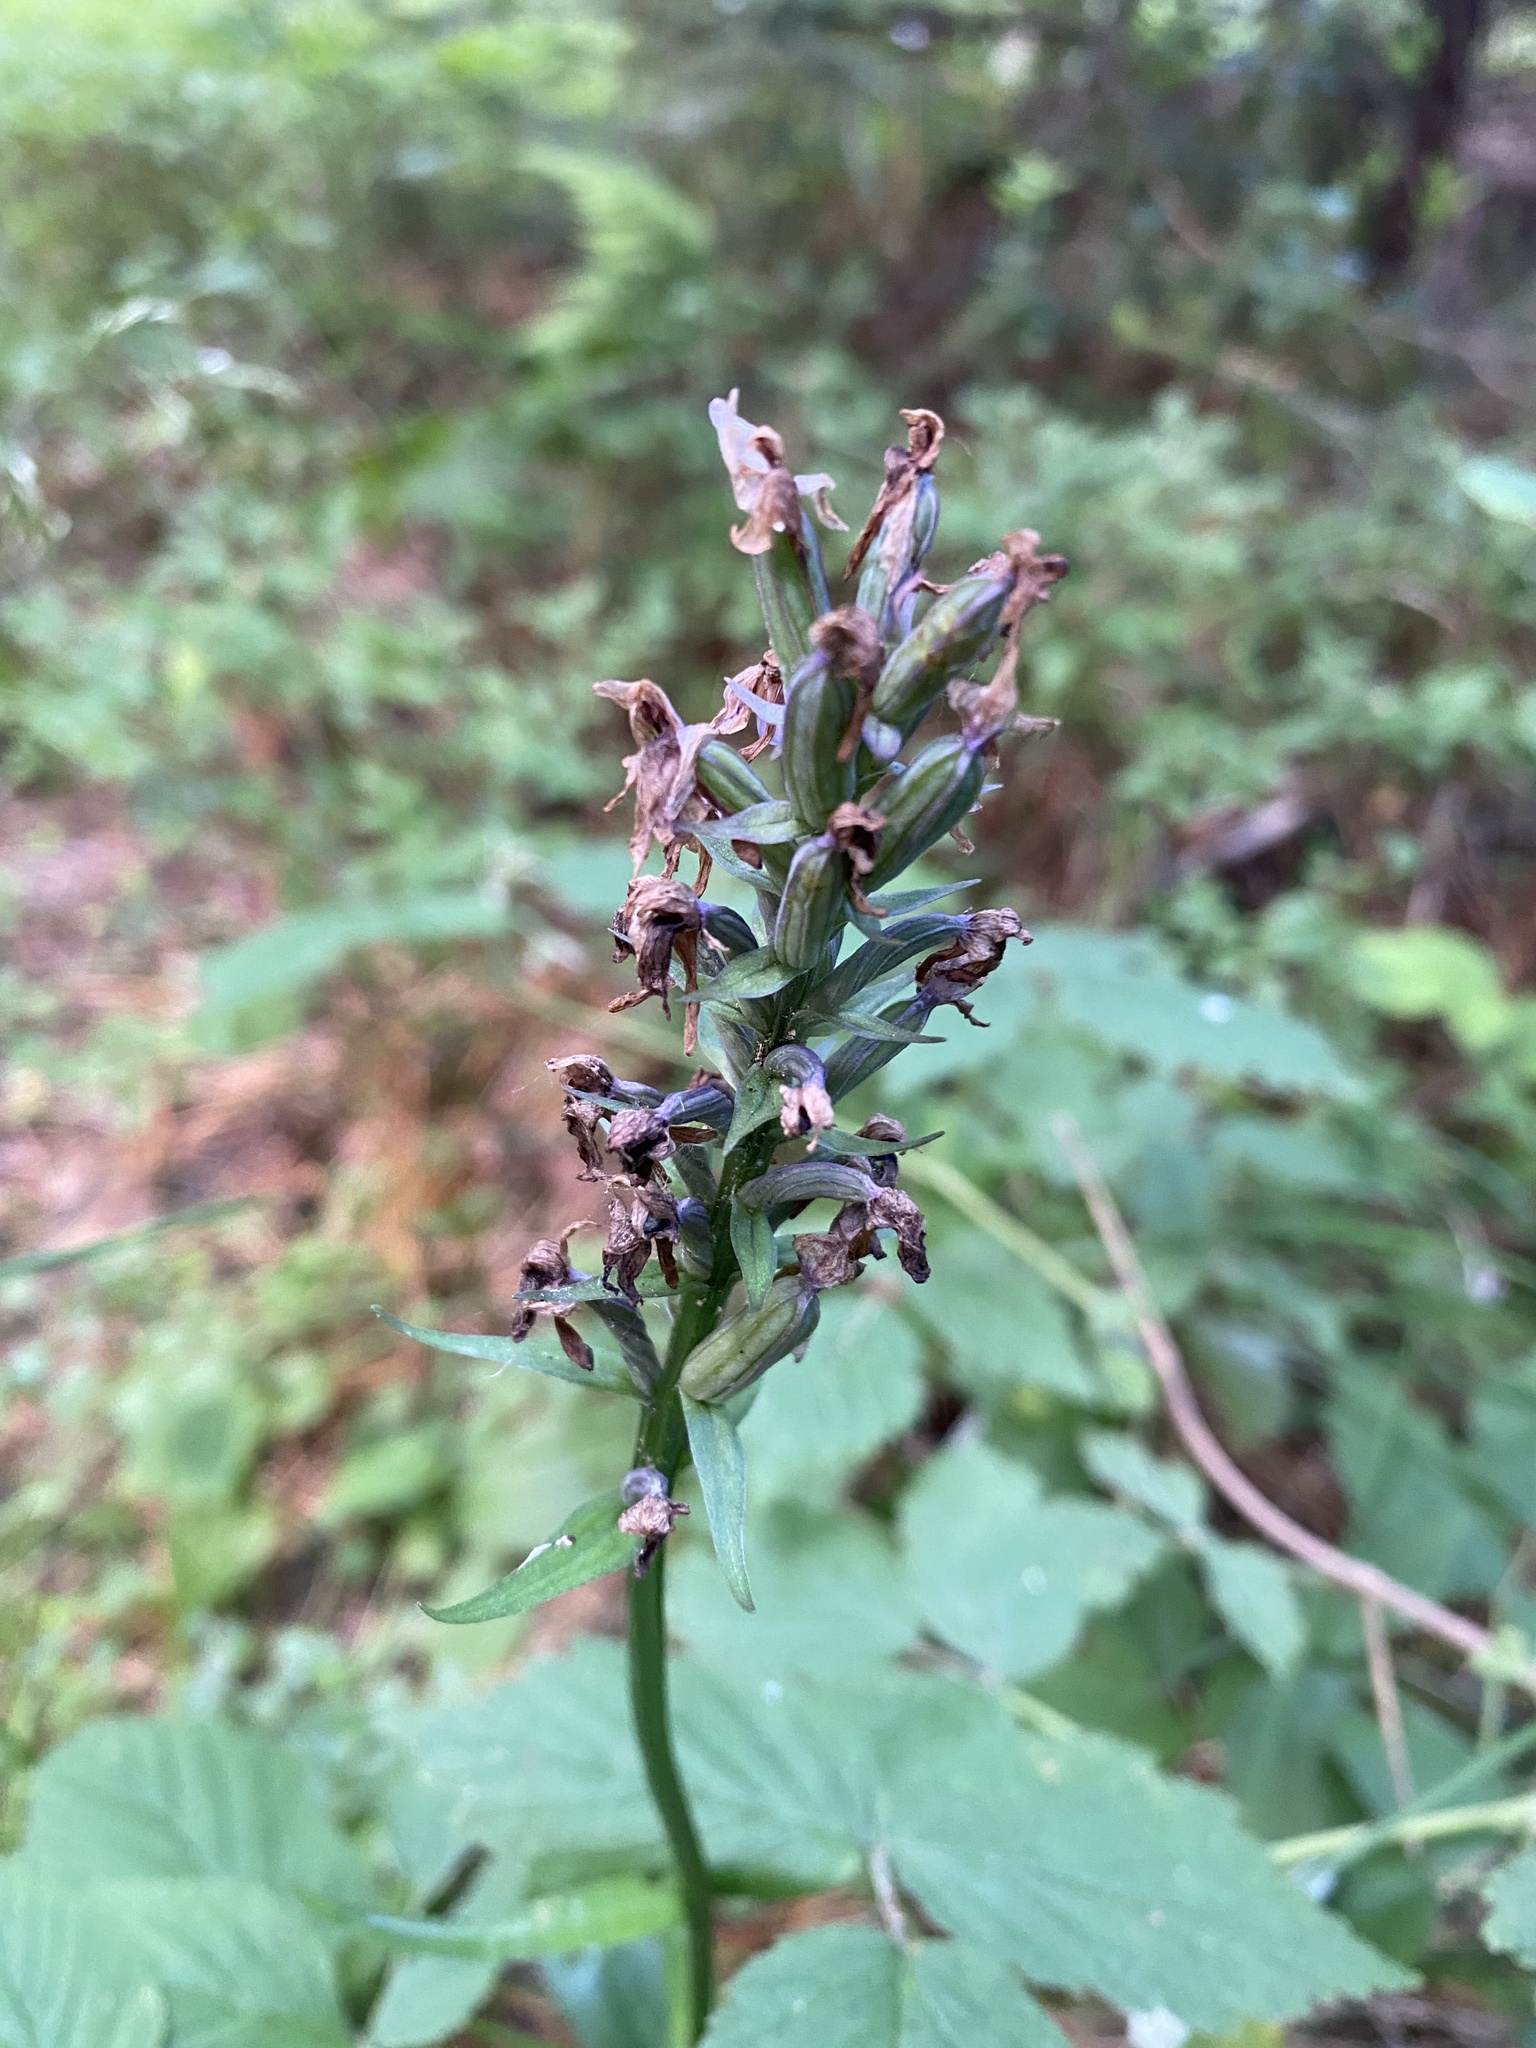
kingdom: Plantae
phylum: Tracheophyta
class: Liliopsida
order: Asparagales
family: Orchidaceae
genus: Dactylorhiza
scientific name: Dactylorhiza maculata
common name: Heath spotted-orchid
